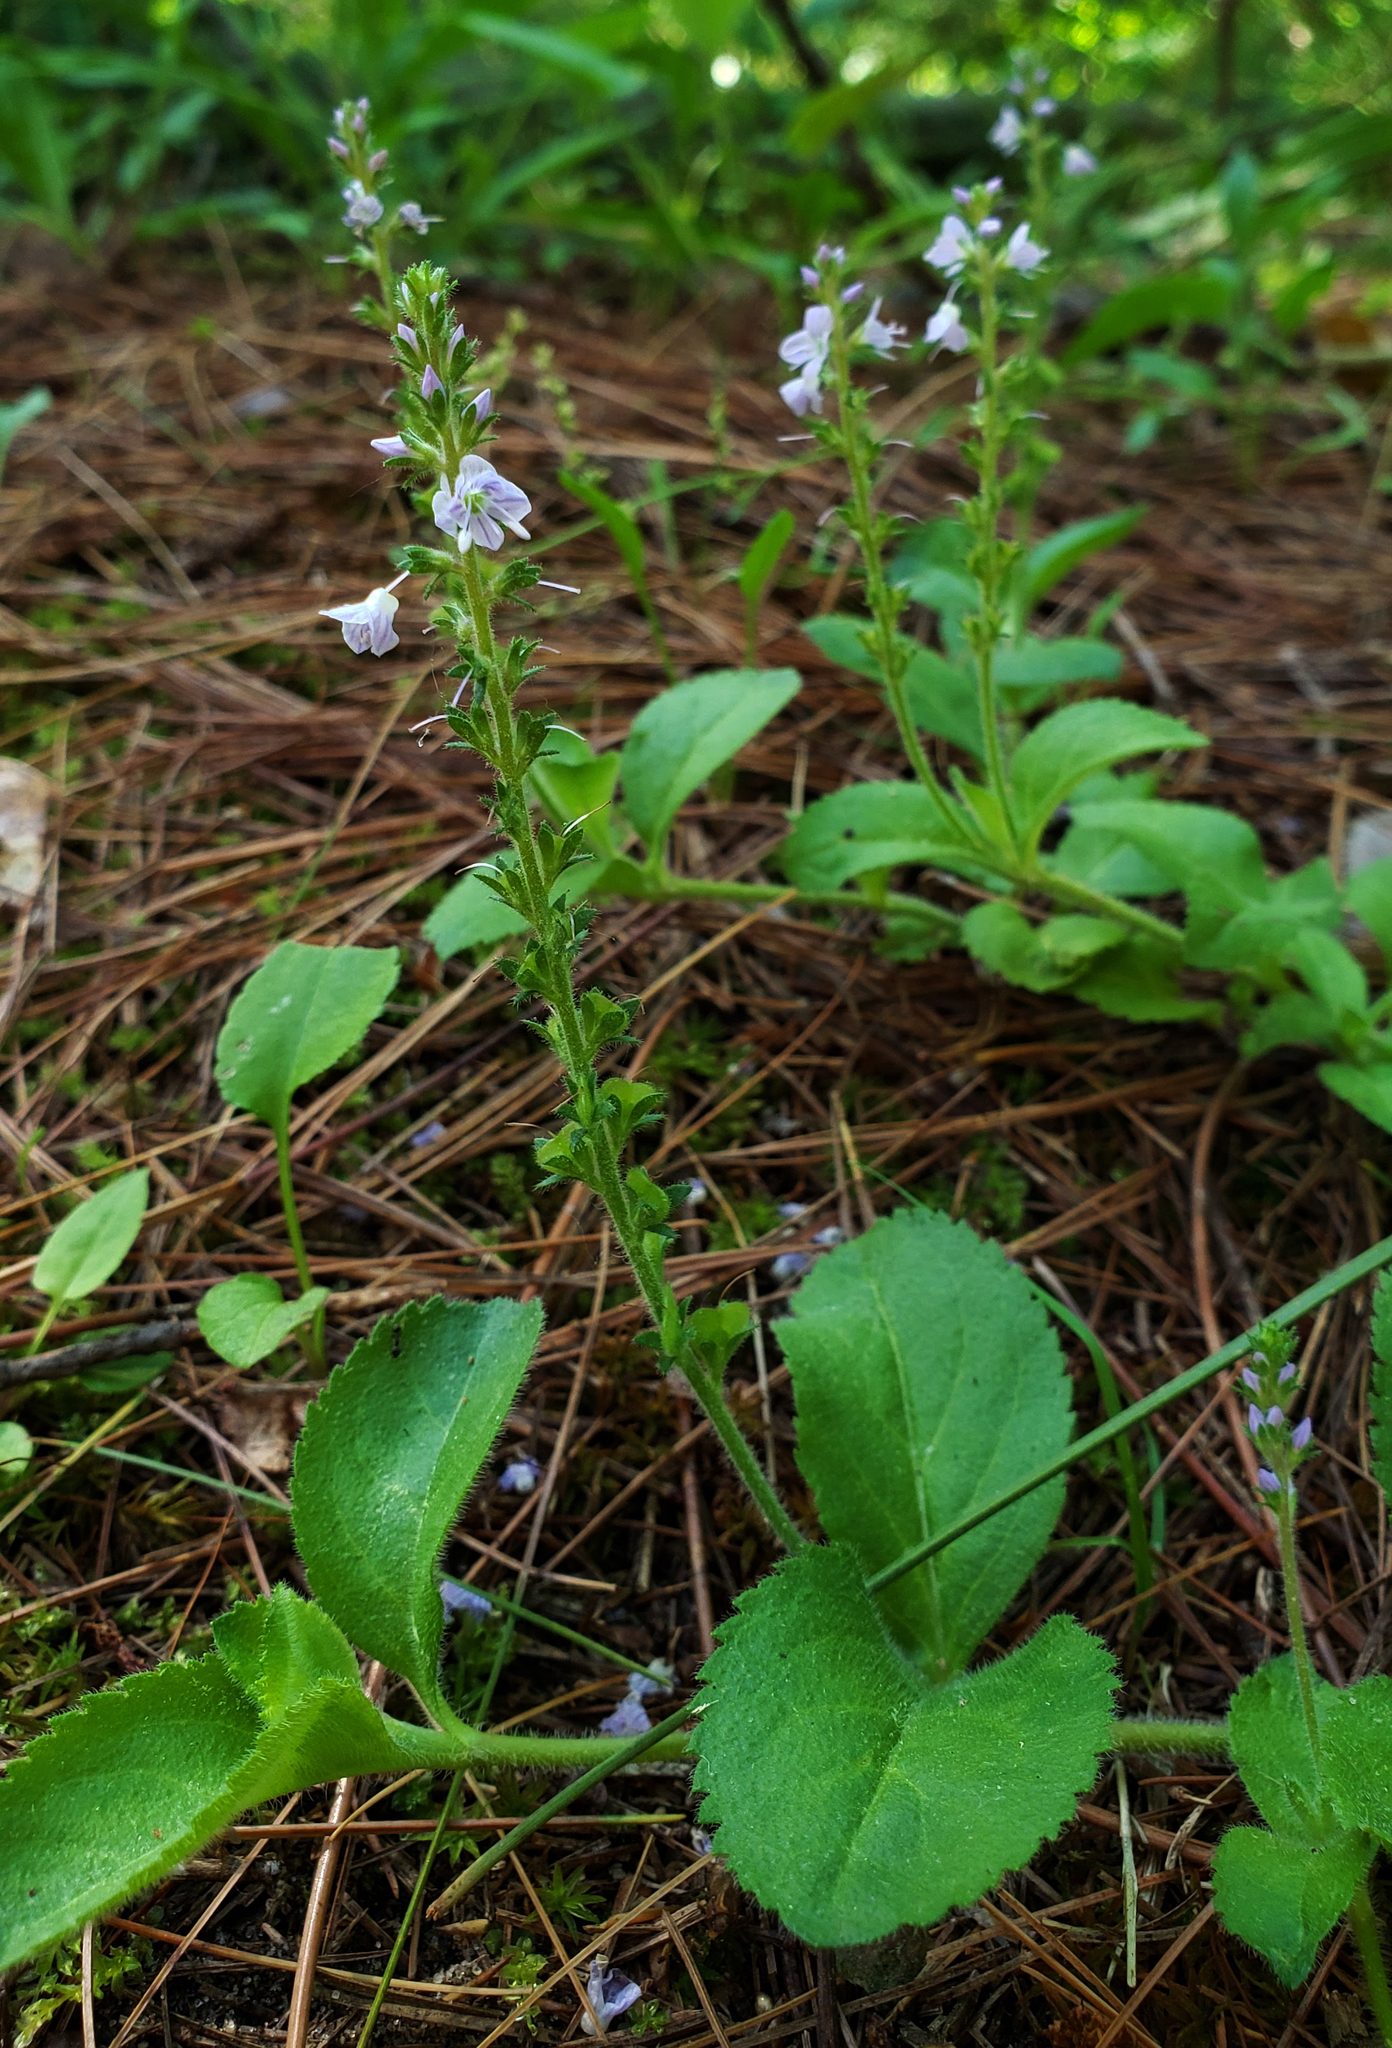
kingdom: Plantae
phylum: Tracheophyta
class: Magnoliopsida
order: Lamiales
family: Plantaginaceae
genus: Veronica
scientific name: Veronica officinalis
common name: Common speedwell
